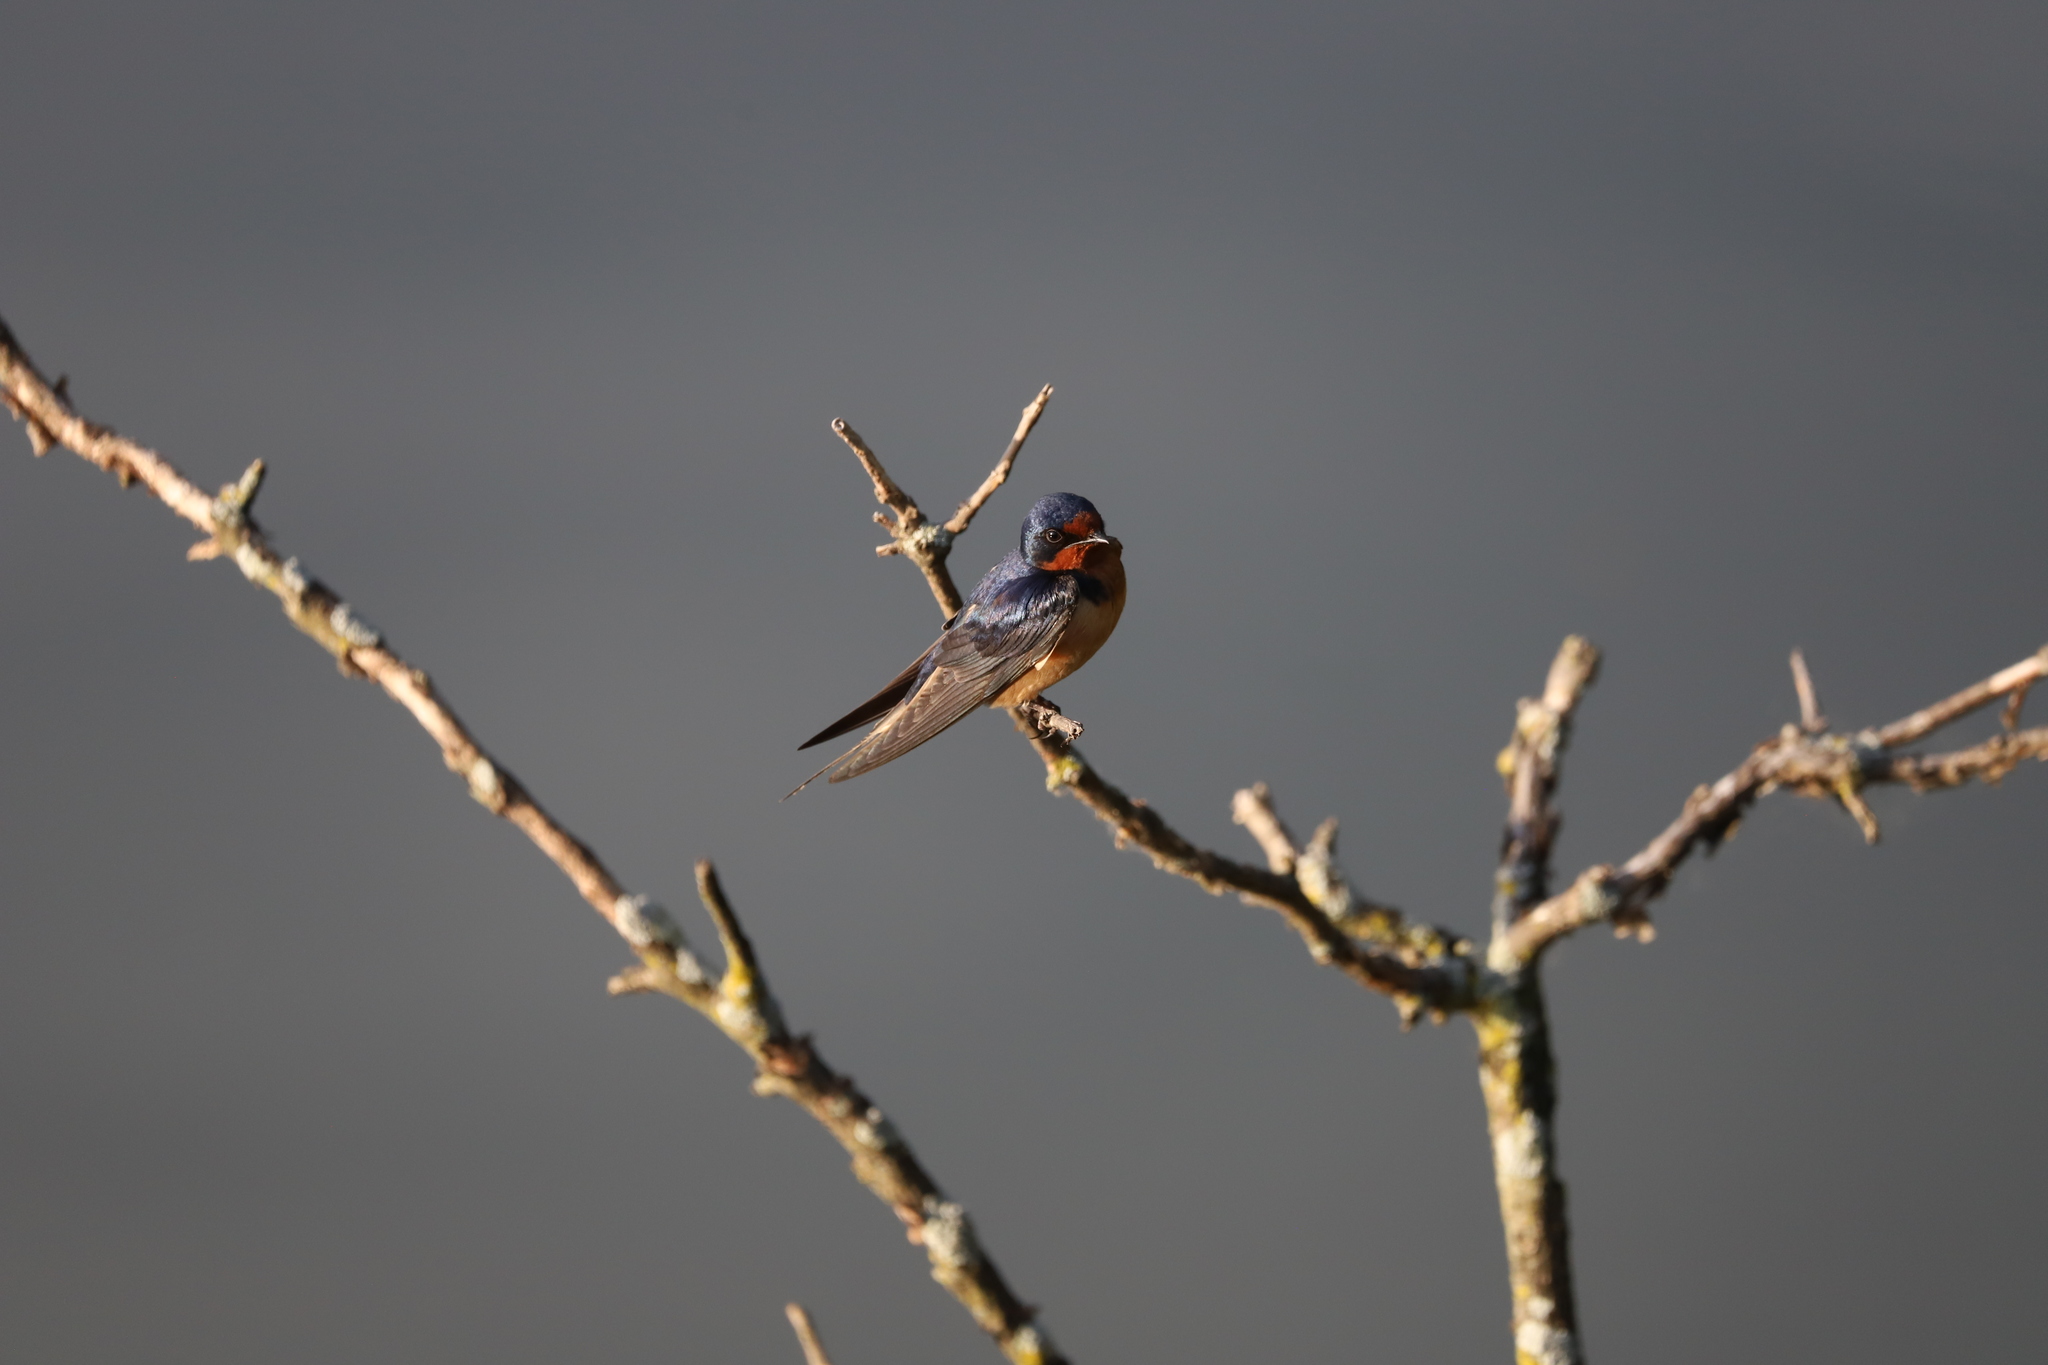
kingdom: Animalia
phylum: Chordata
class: Aves
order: Passeriformes
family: Hirundinidae
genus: Hirundo
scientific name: Hirundo rustica
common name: Barn swallow
